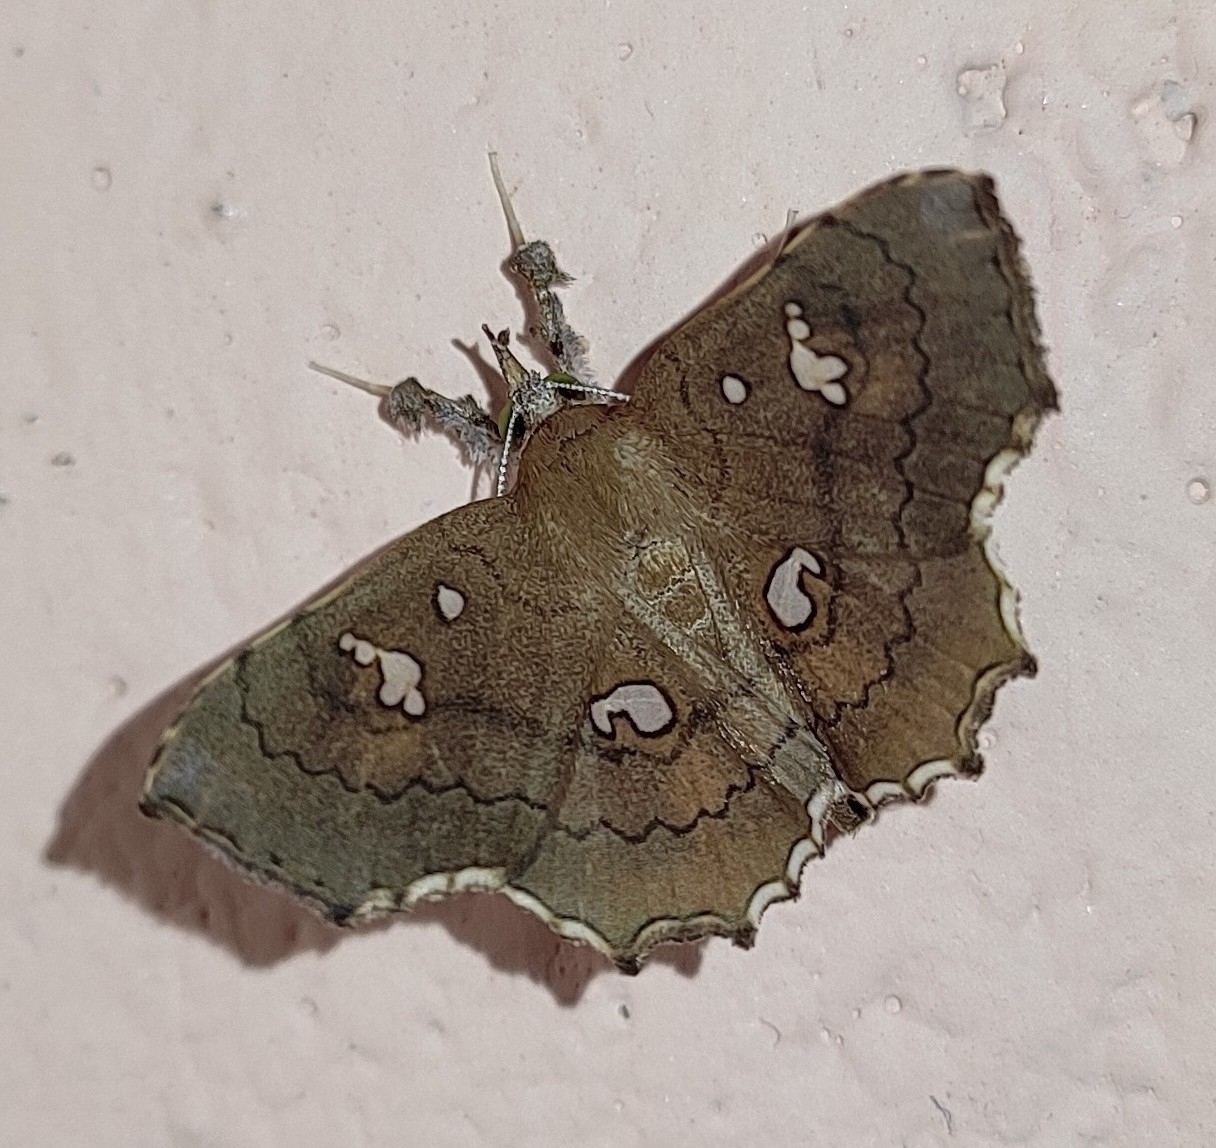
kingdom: Animalia
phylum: Arthropoda
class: Insecta
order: Lepidoptera
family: Erebidae
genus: Egnasia
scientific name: Egnasia ephyrodalis
